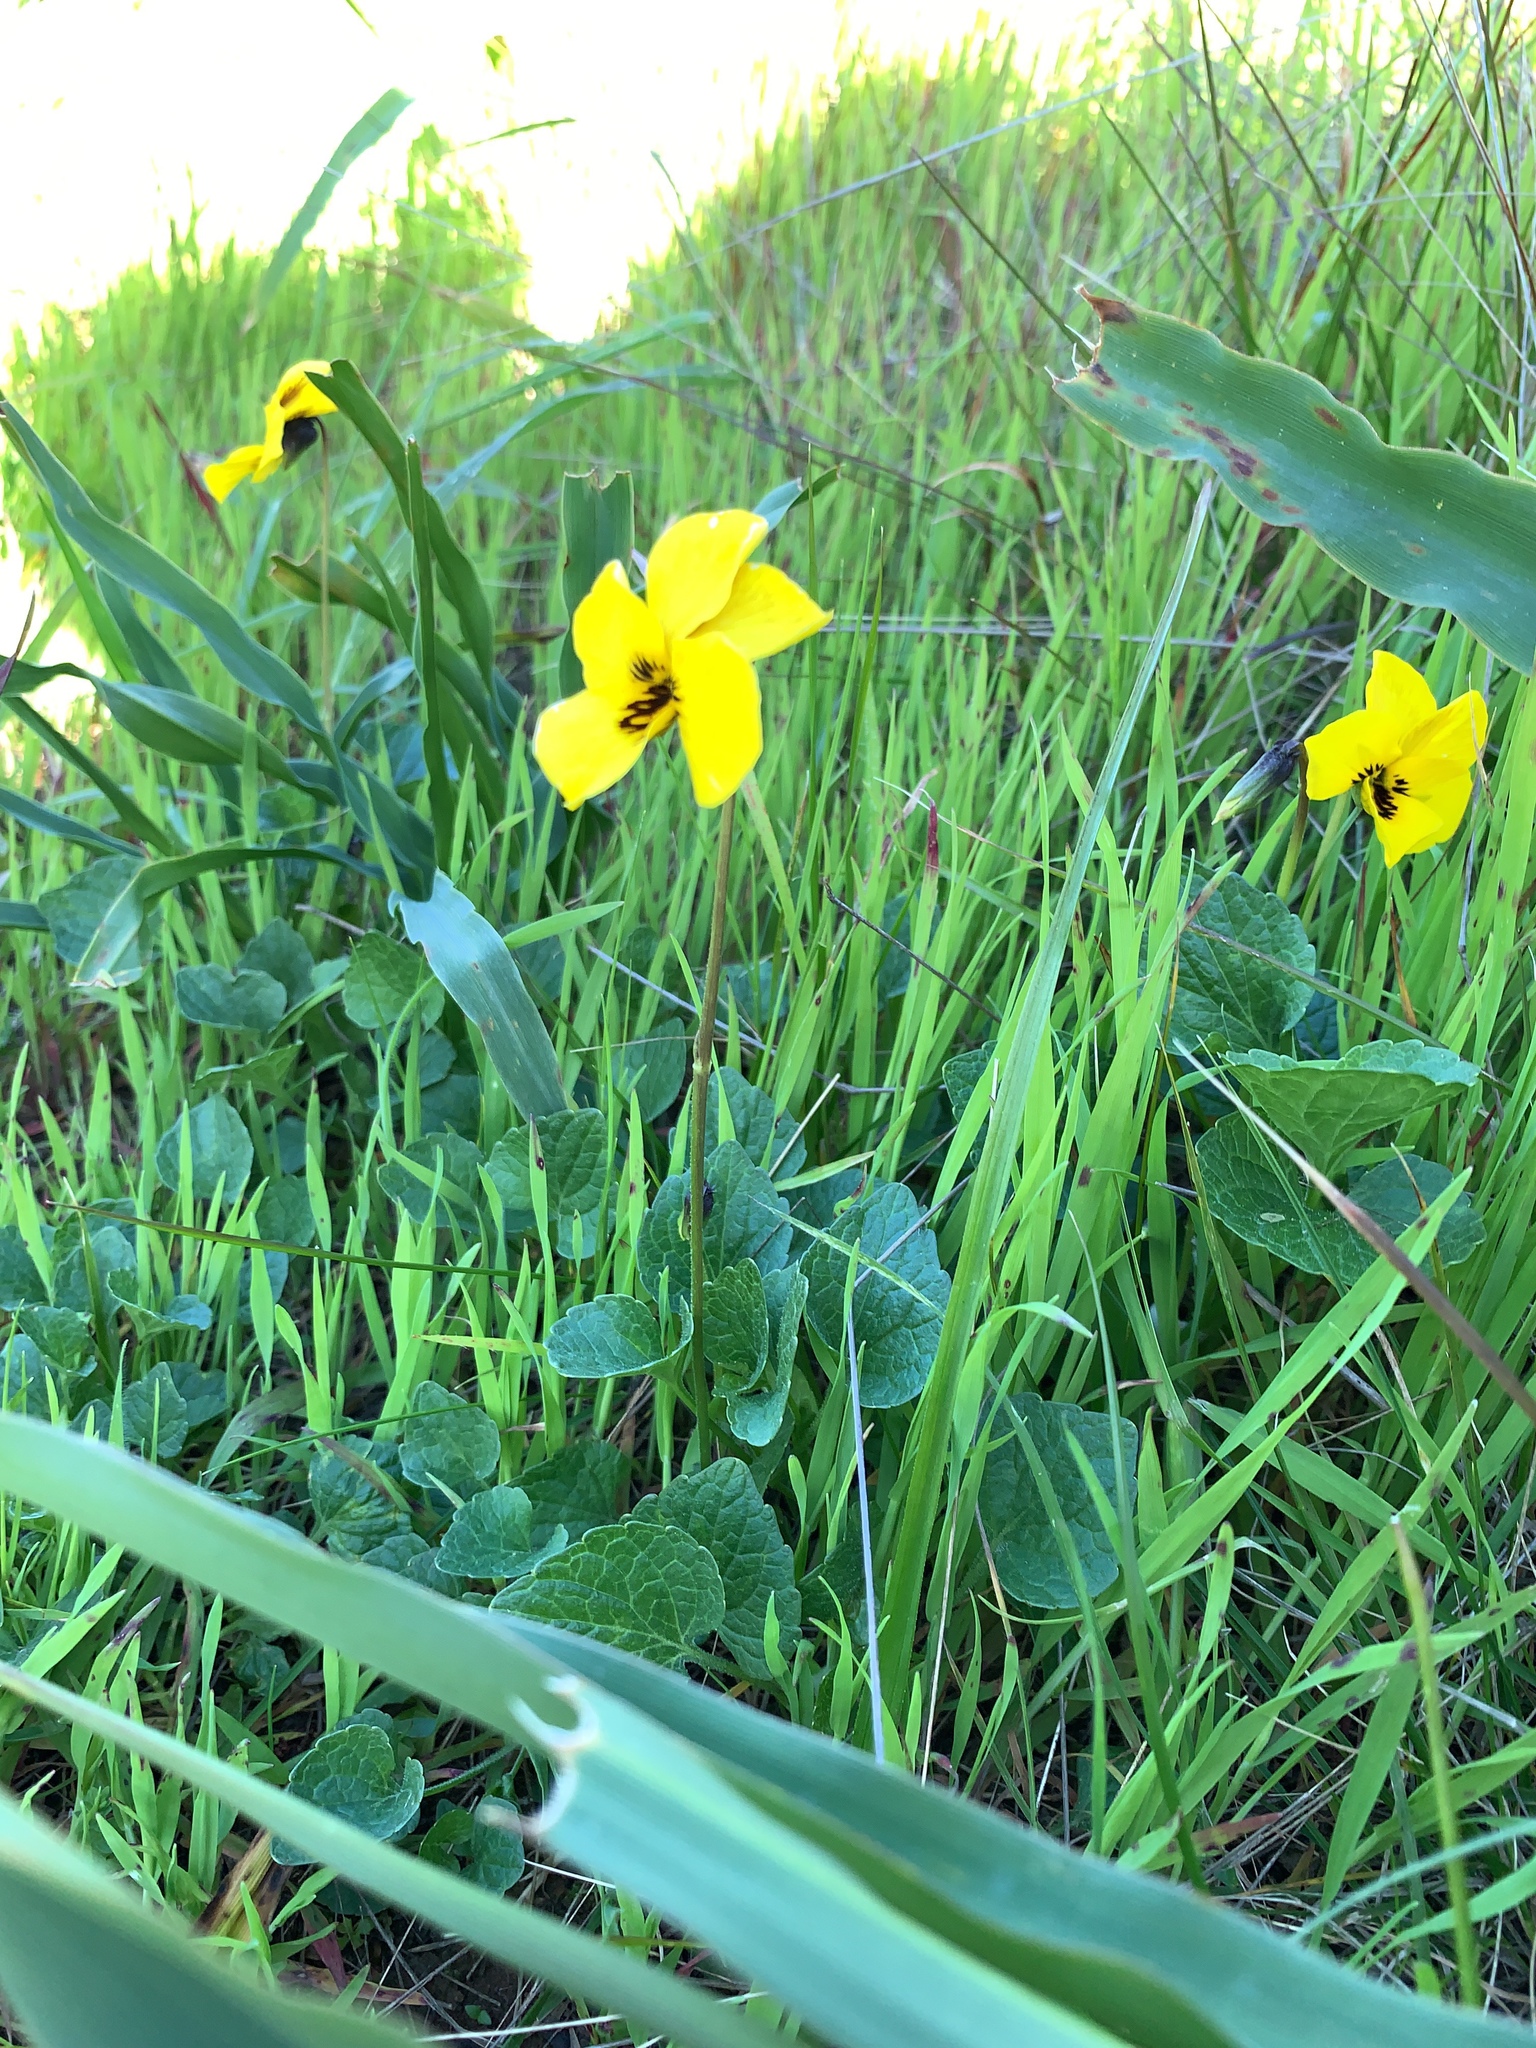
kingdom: Plantae
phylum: Tracheophyta
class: Magnoliopsida
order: Malpighiales
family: Violaceae
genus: Viola
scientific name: Viola pedunculata
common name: California golden violet
